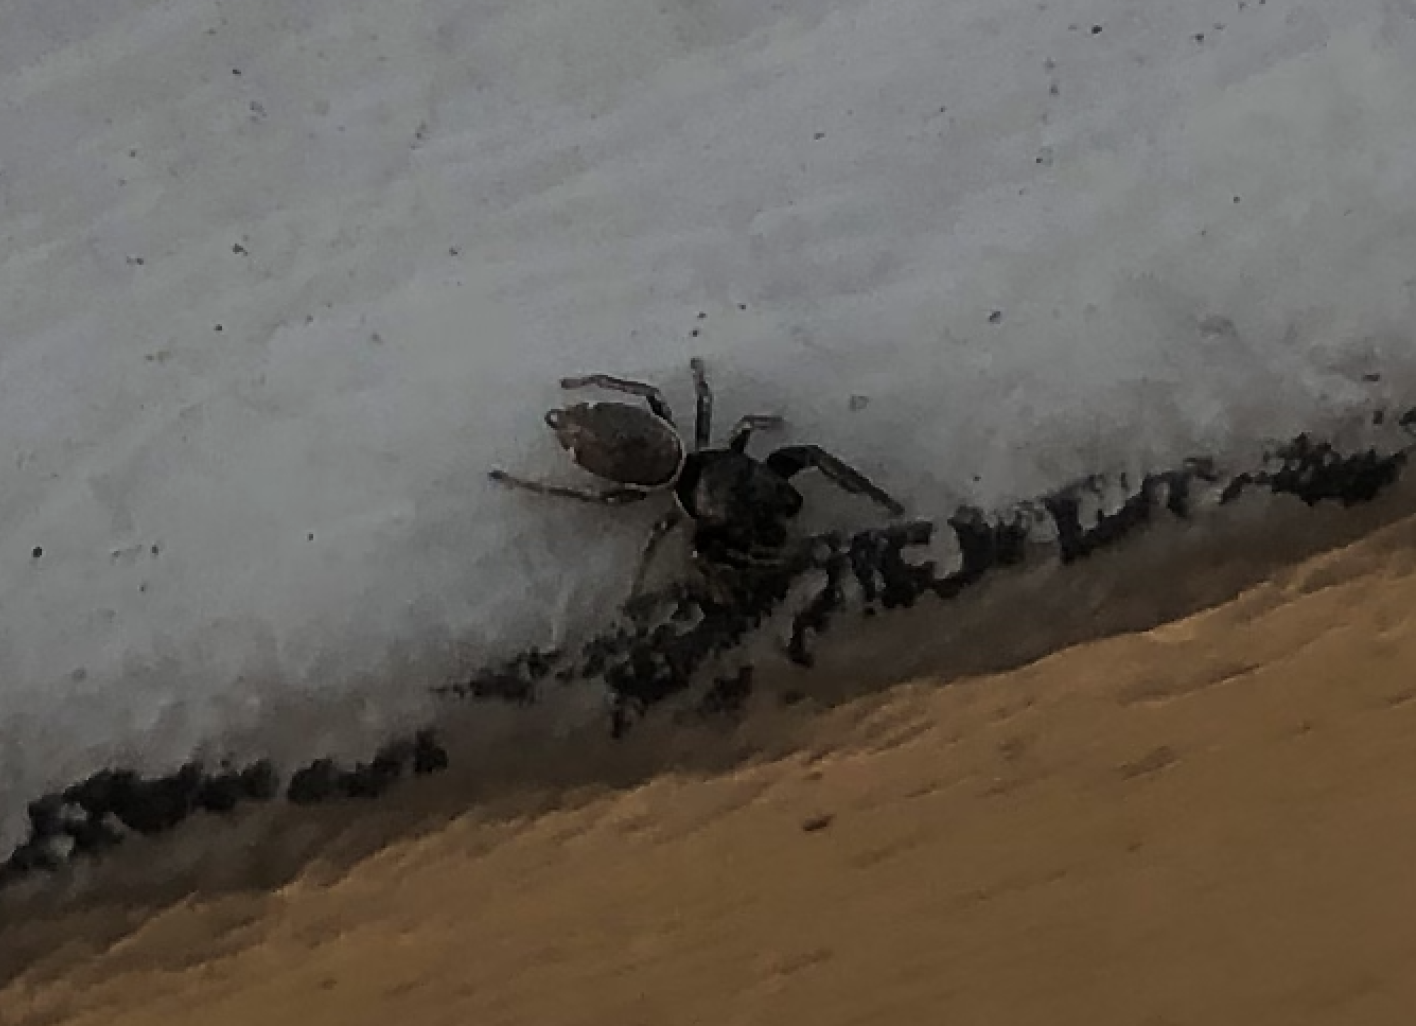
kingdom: Animalia
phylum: Arthropoda
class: Arachnida
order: Araneae
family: Salticidae
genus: Sassacus
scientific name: Sassacus vitis
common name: Jumping spiders
